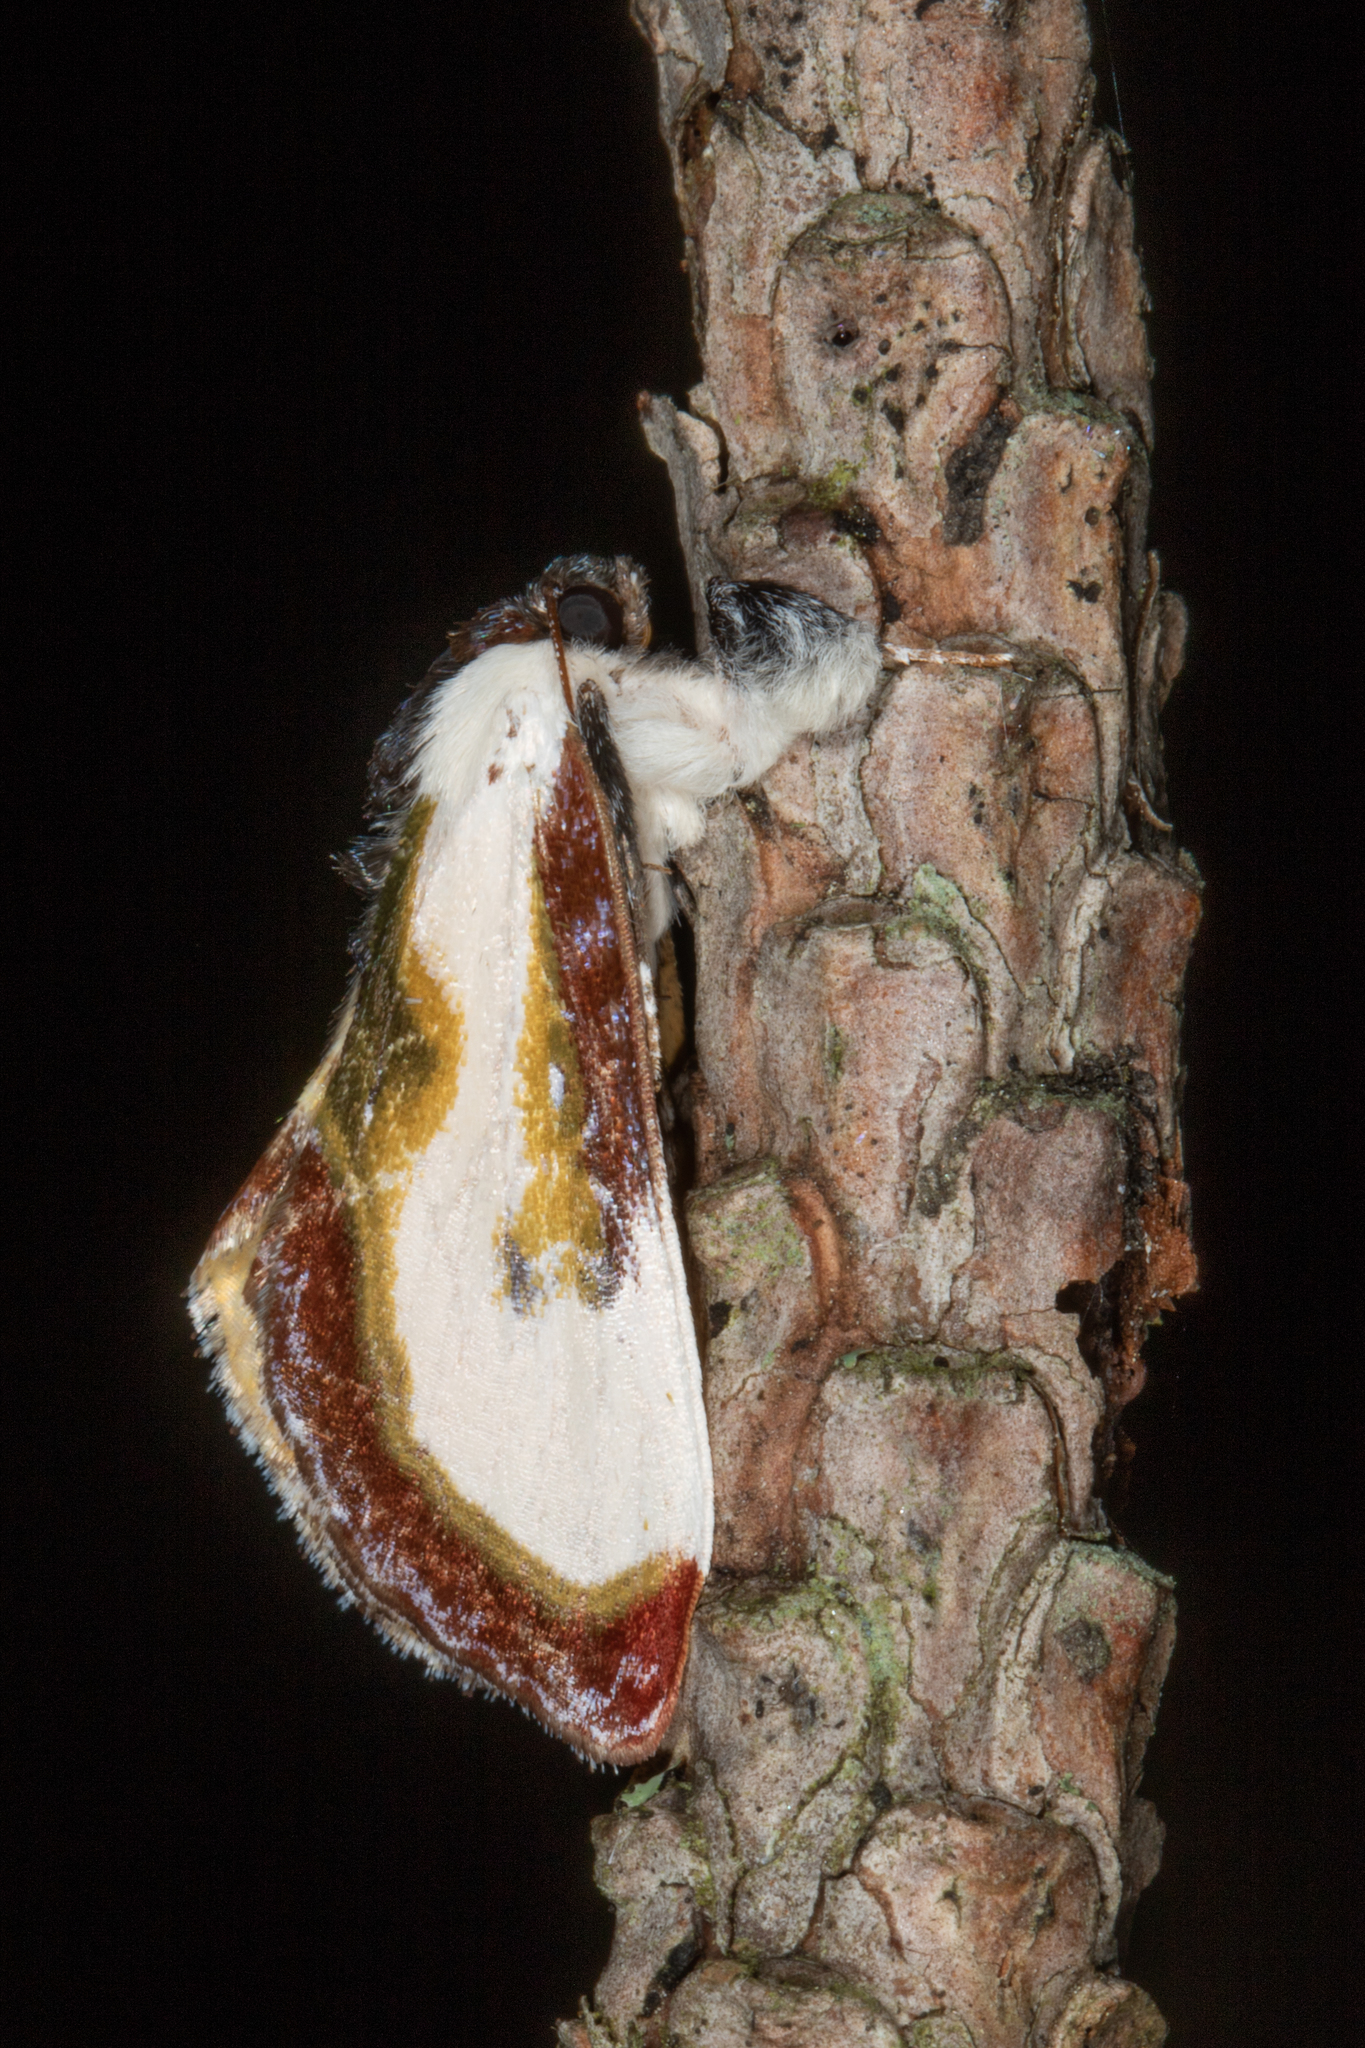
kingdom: Animalia
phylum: Arthropoda
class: Insecta
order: Lepidoptera
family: Noctuidae
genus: Eudryas
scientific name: Eudryas grata
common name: Beautiful wood-nymph
